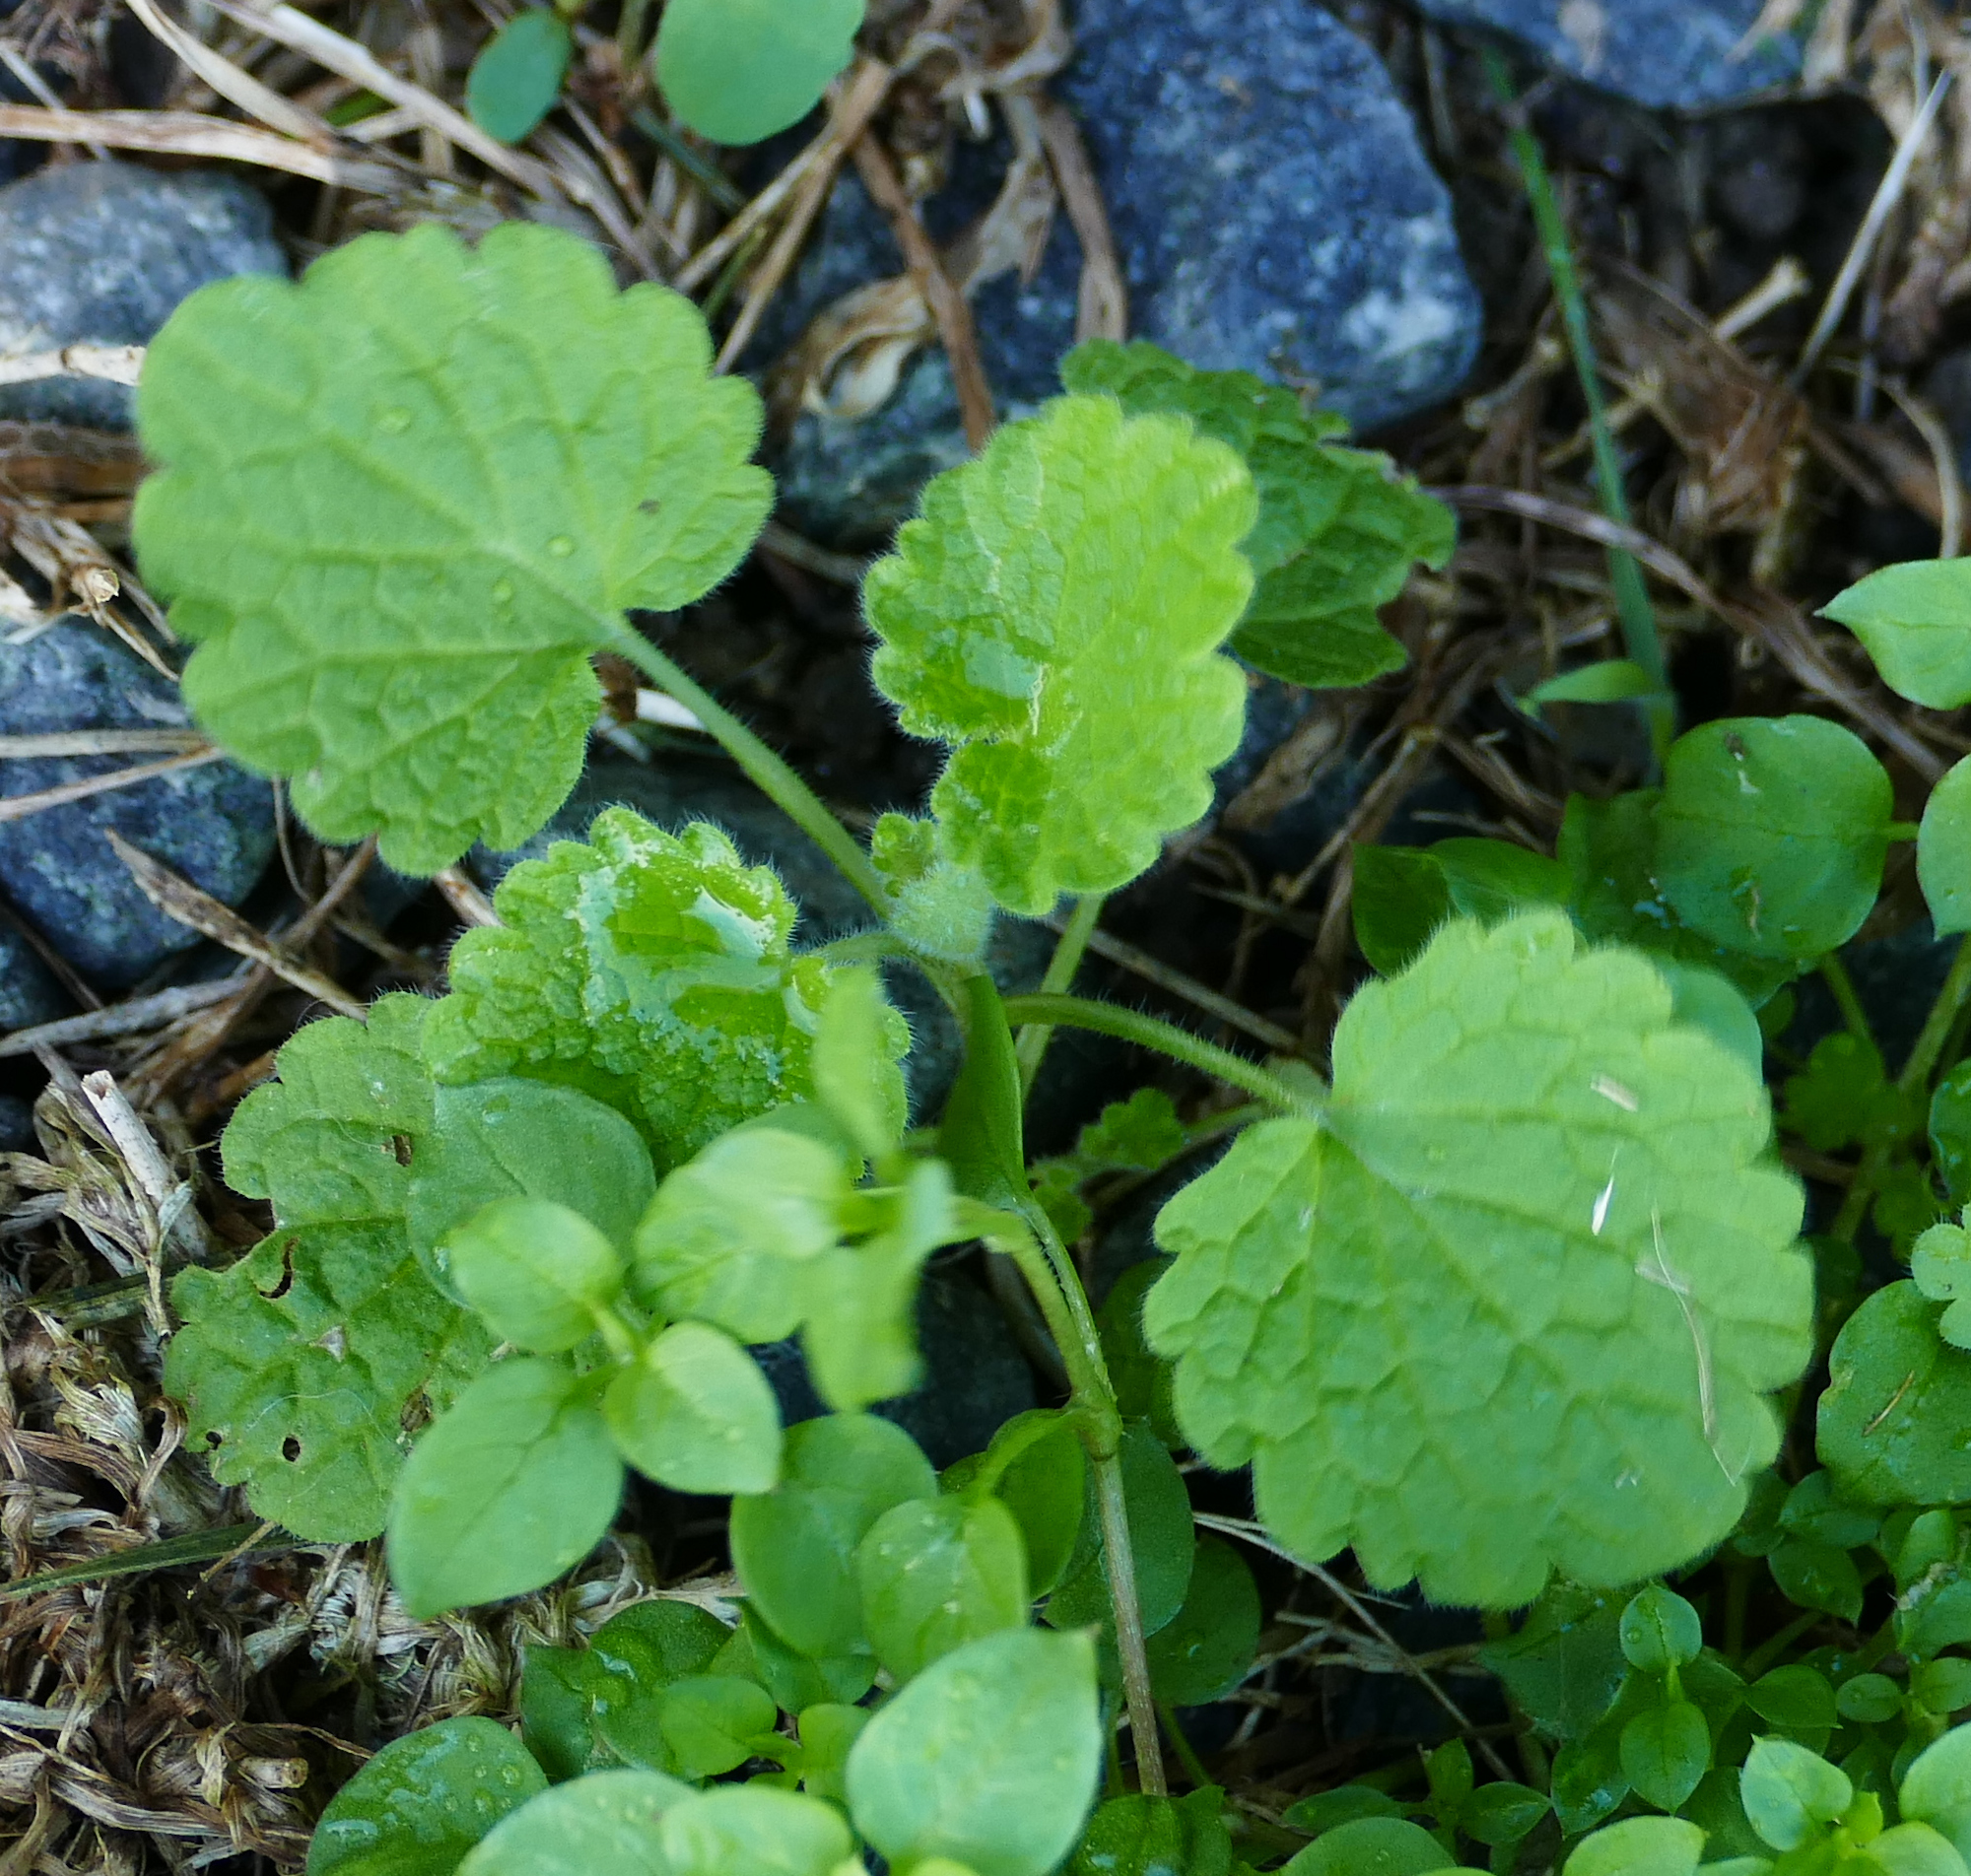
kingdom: Plantae
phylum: Tracheophyta
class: Magnoliopsida
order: Lamiales
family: Lamiaceae
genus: Lamium
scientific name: Lamium purpureum
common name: Red dead-nettle
